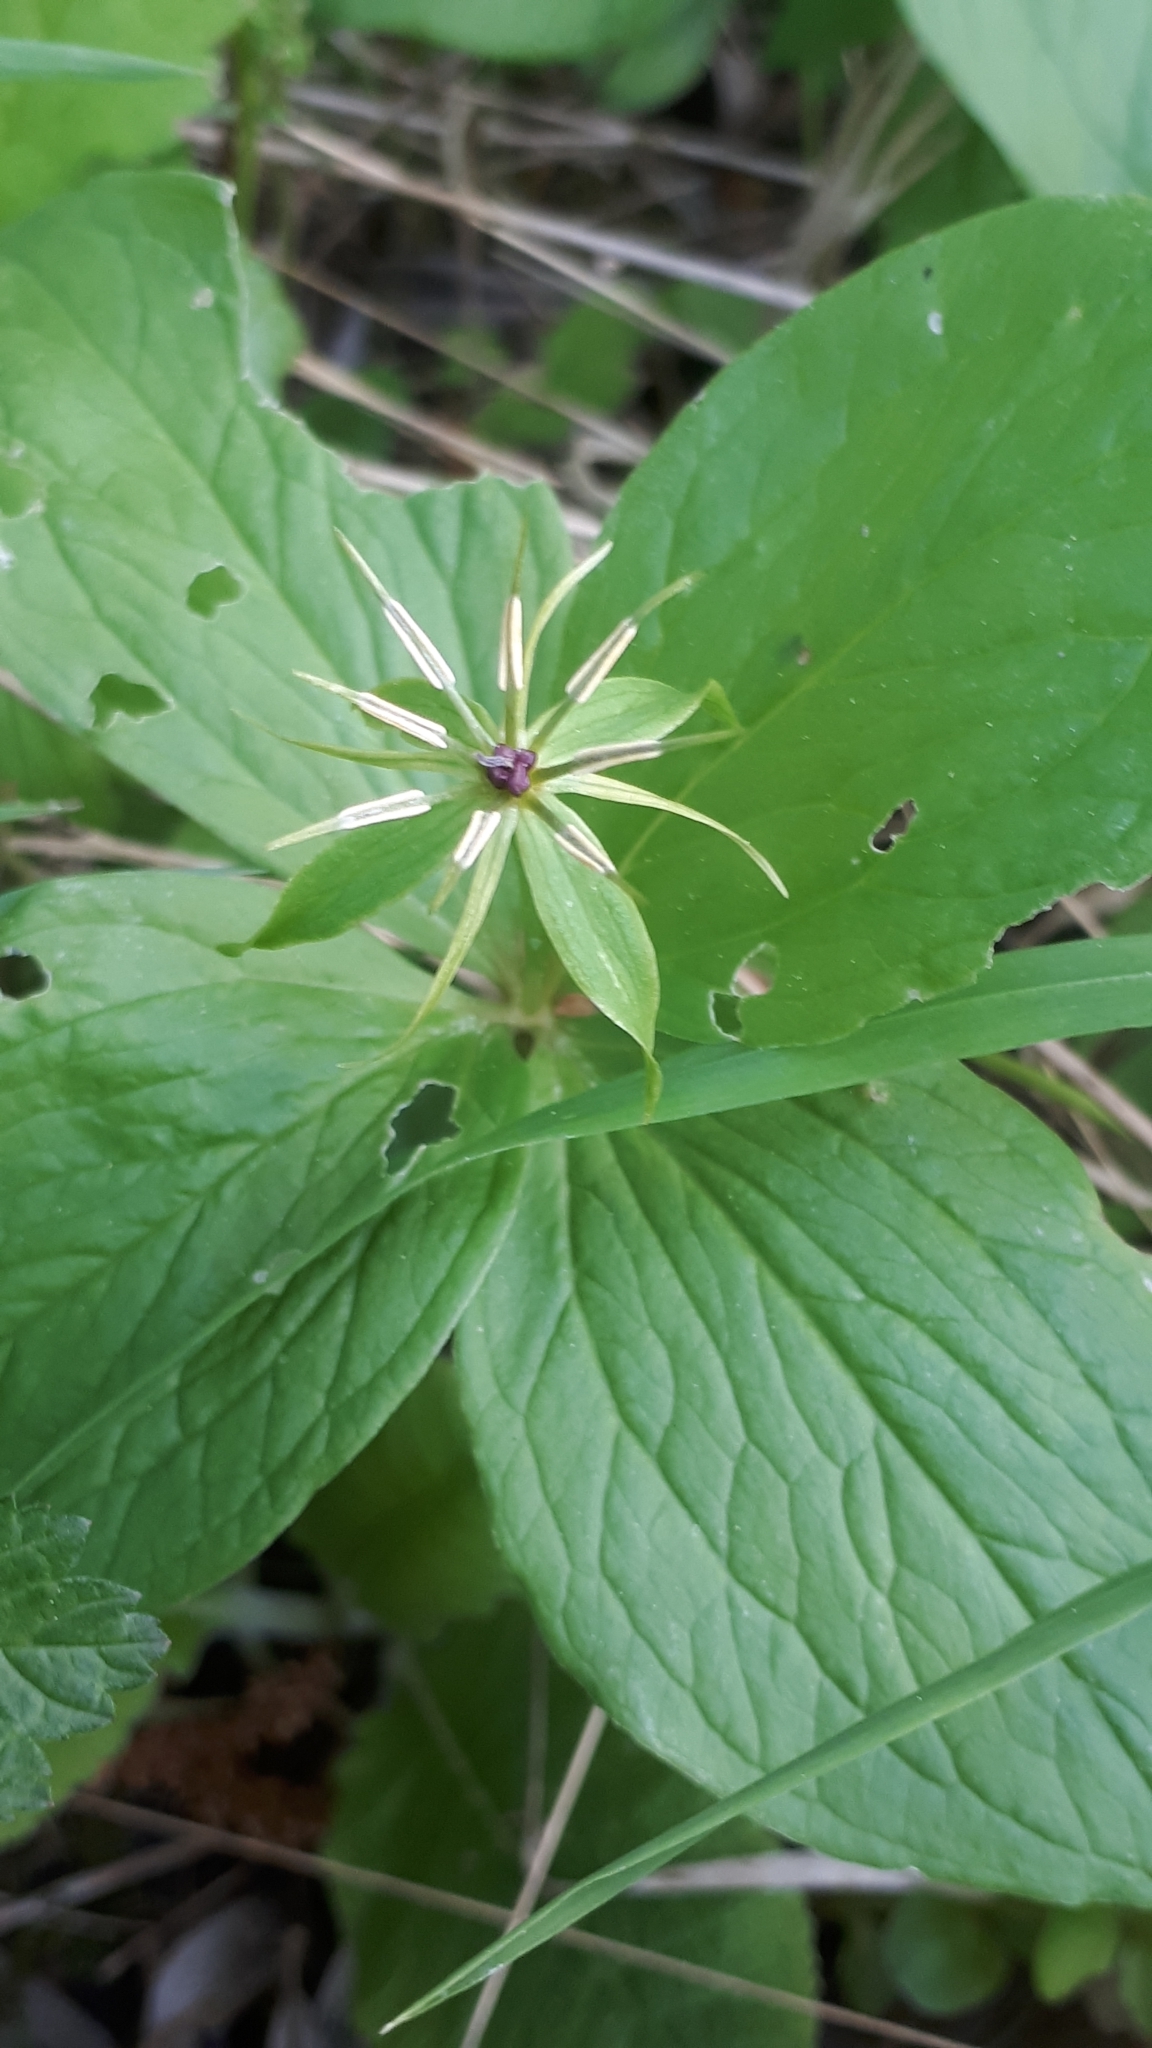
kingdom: Plantae
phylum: Tracheophyta
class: Liliopsida
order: Liliales
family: Melanthiaceae
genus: Paris
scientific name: Paris quadrifolia
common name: Herb-paris
